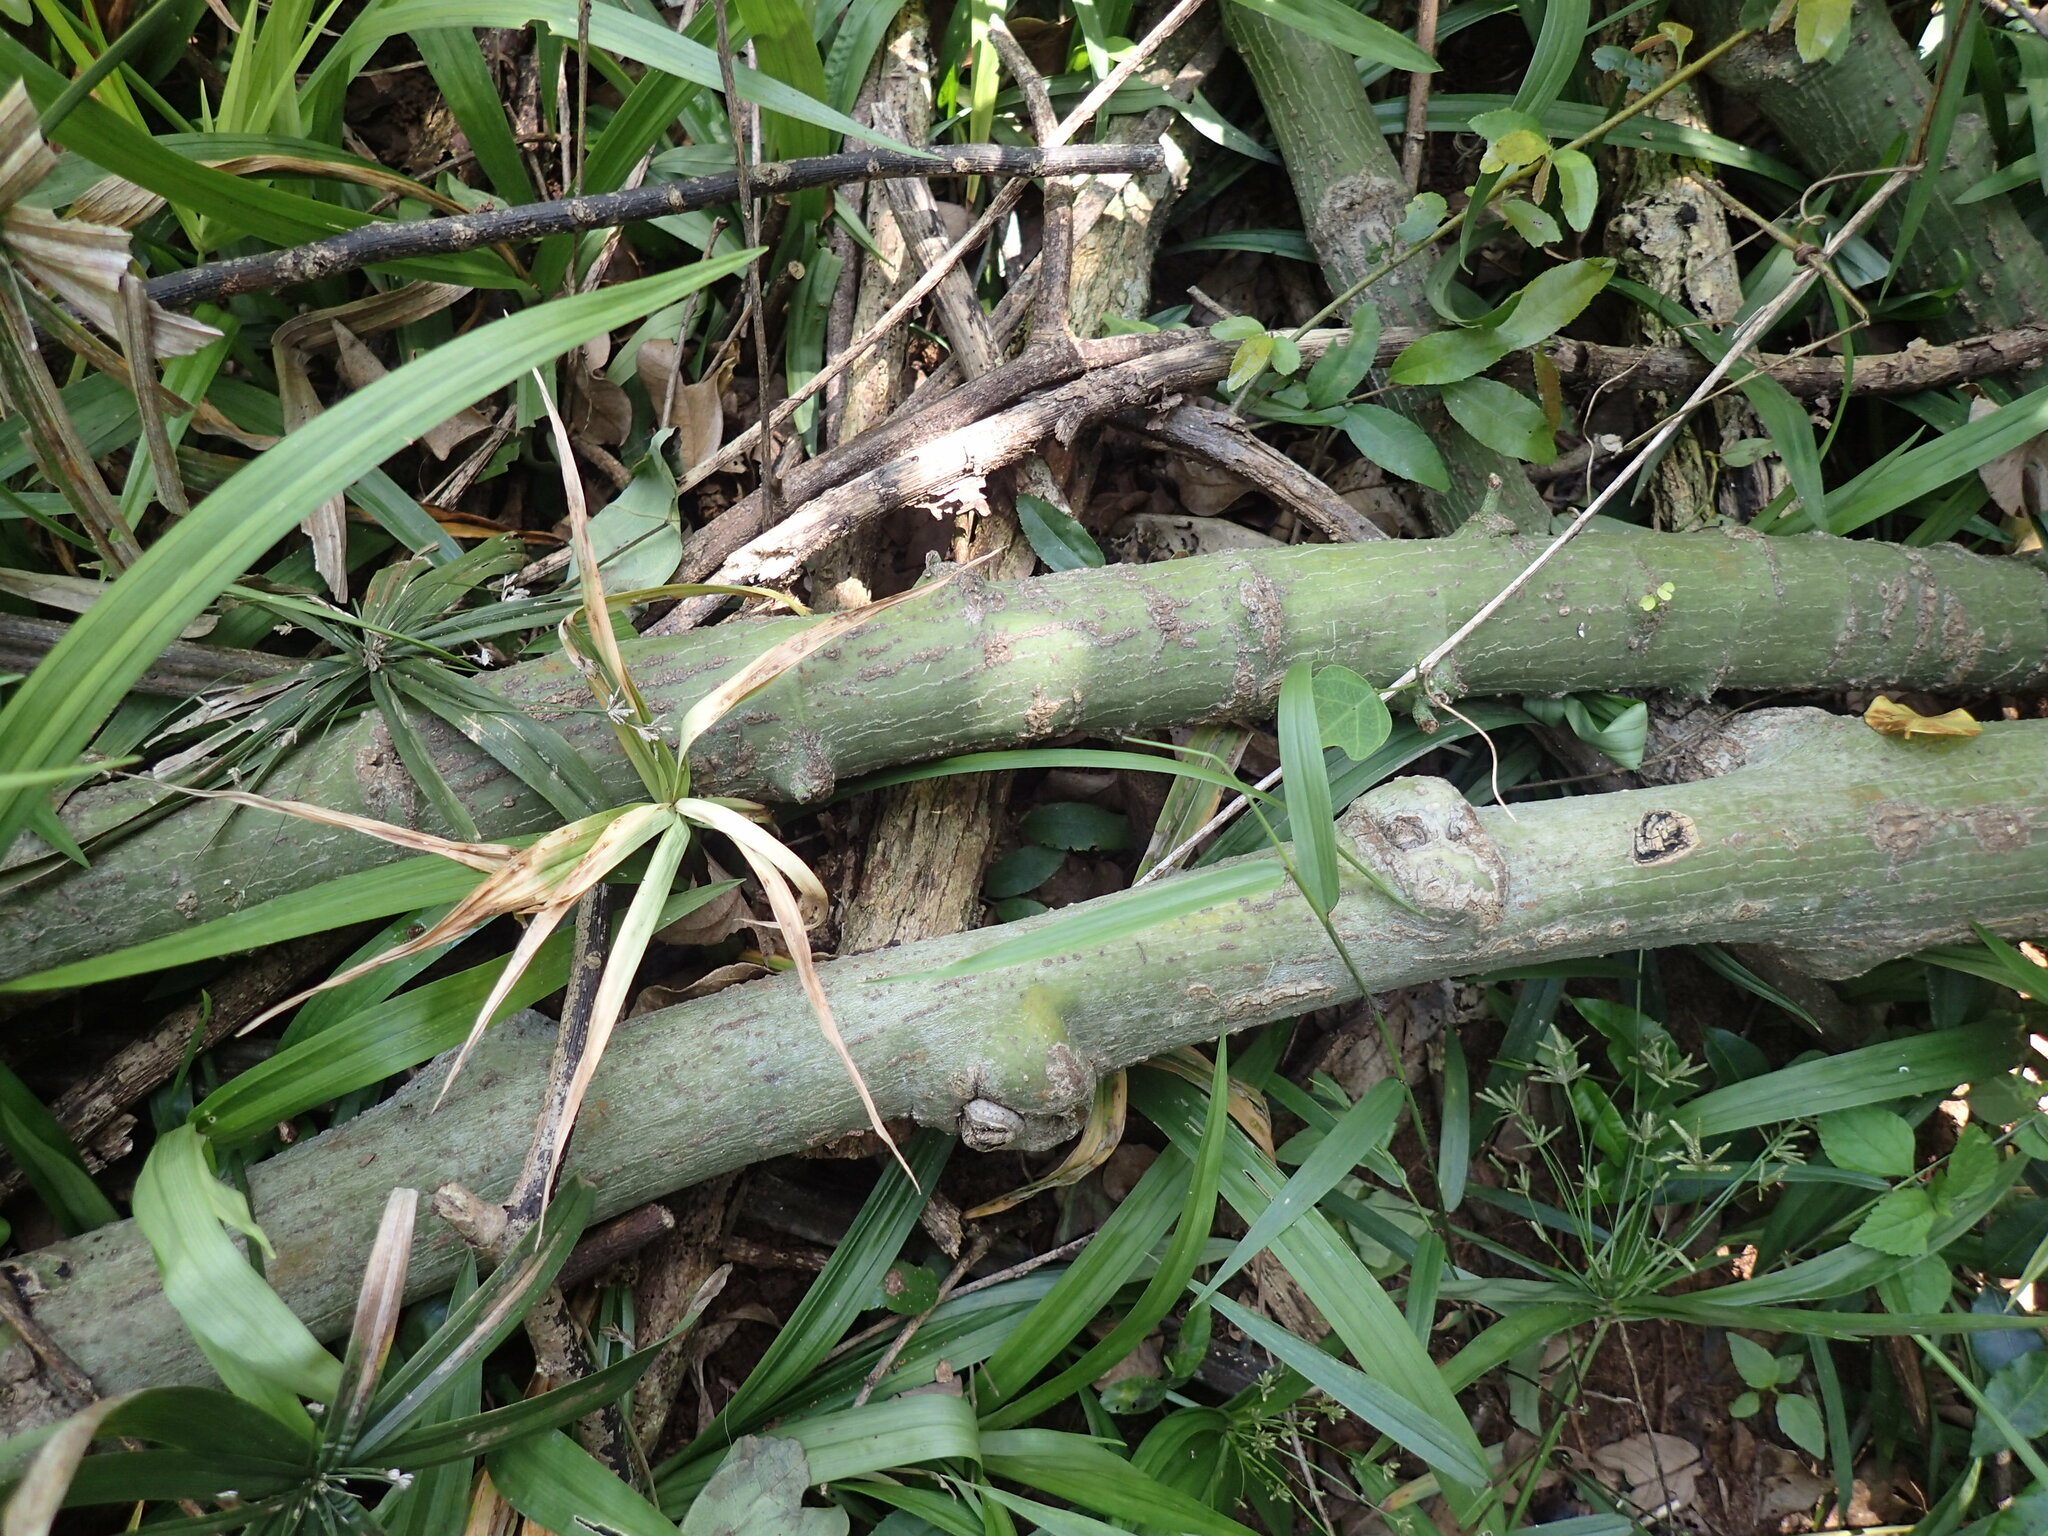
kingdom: Plantae
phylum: Tracheophyta
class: Magnoliopsida
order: Malpighiales
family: Passifloraceae
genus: Adenia
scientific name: Adenia cissampeloides
